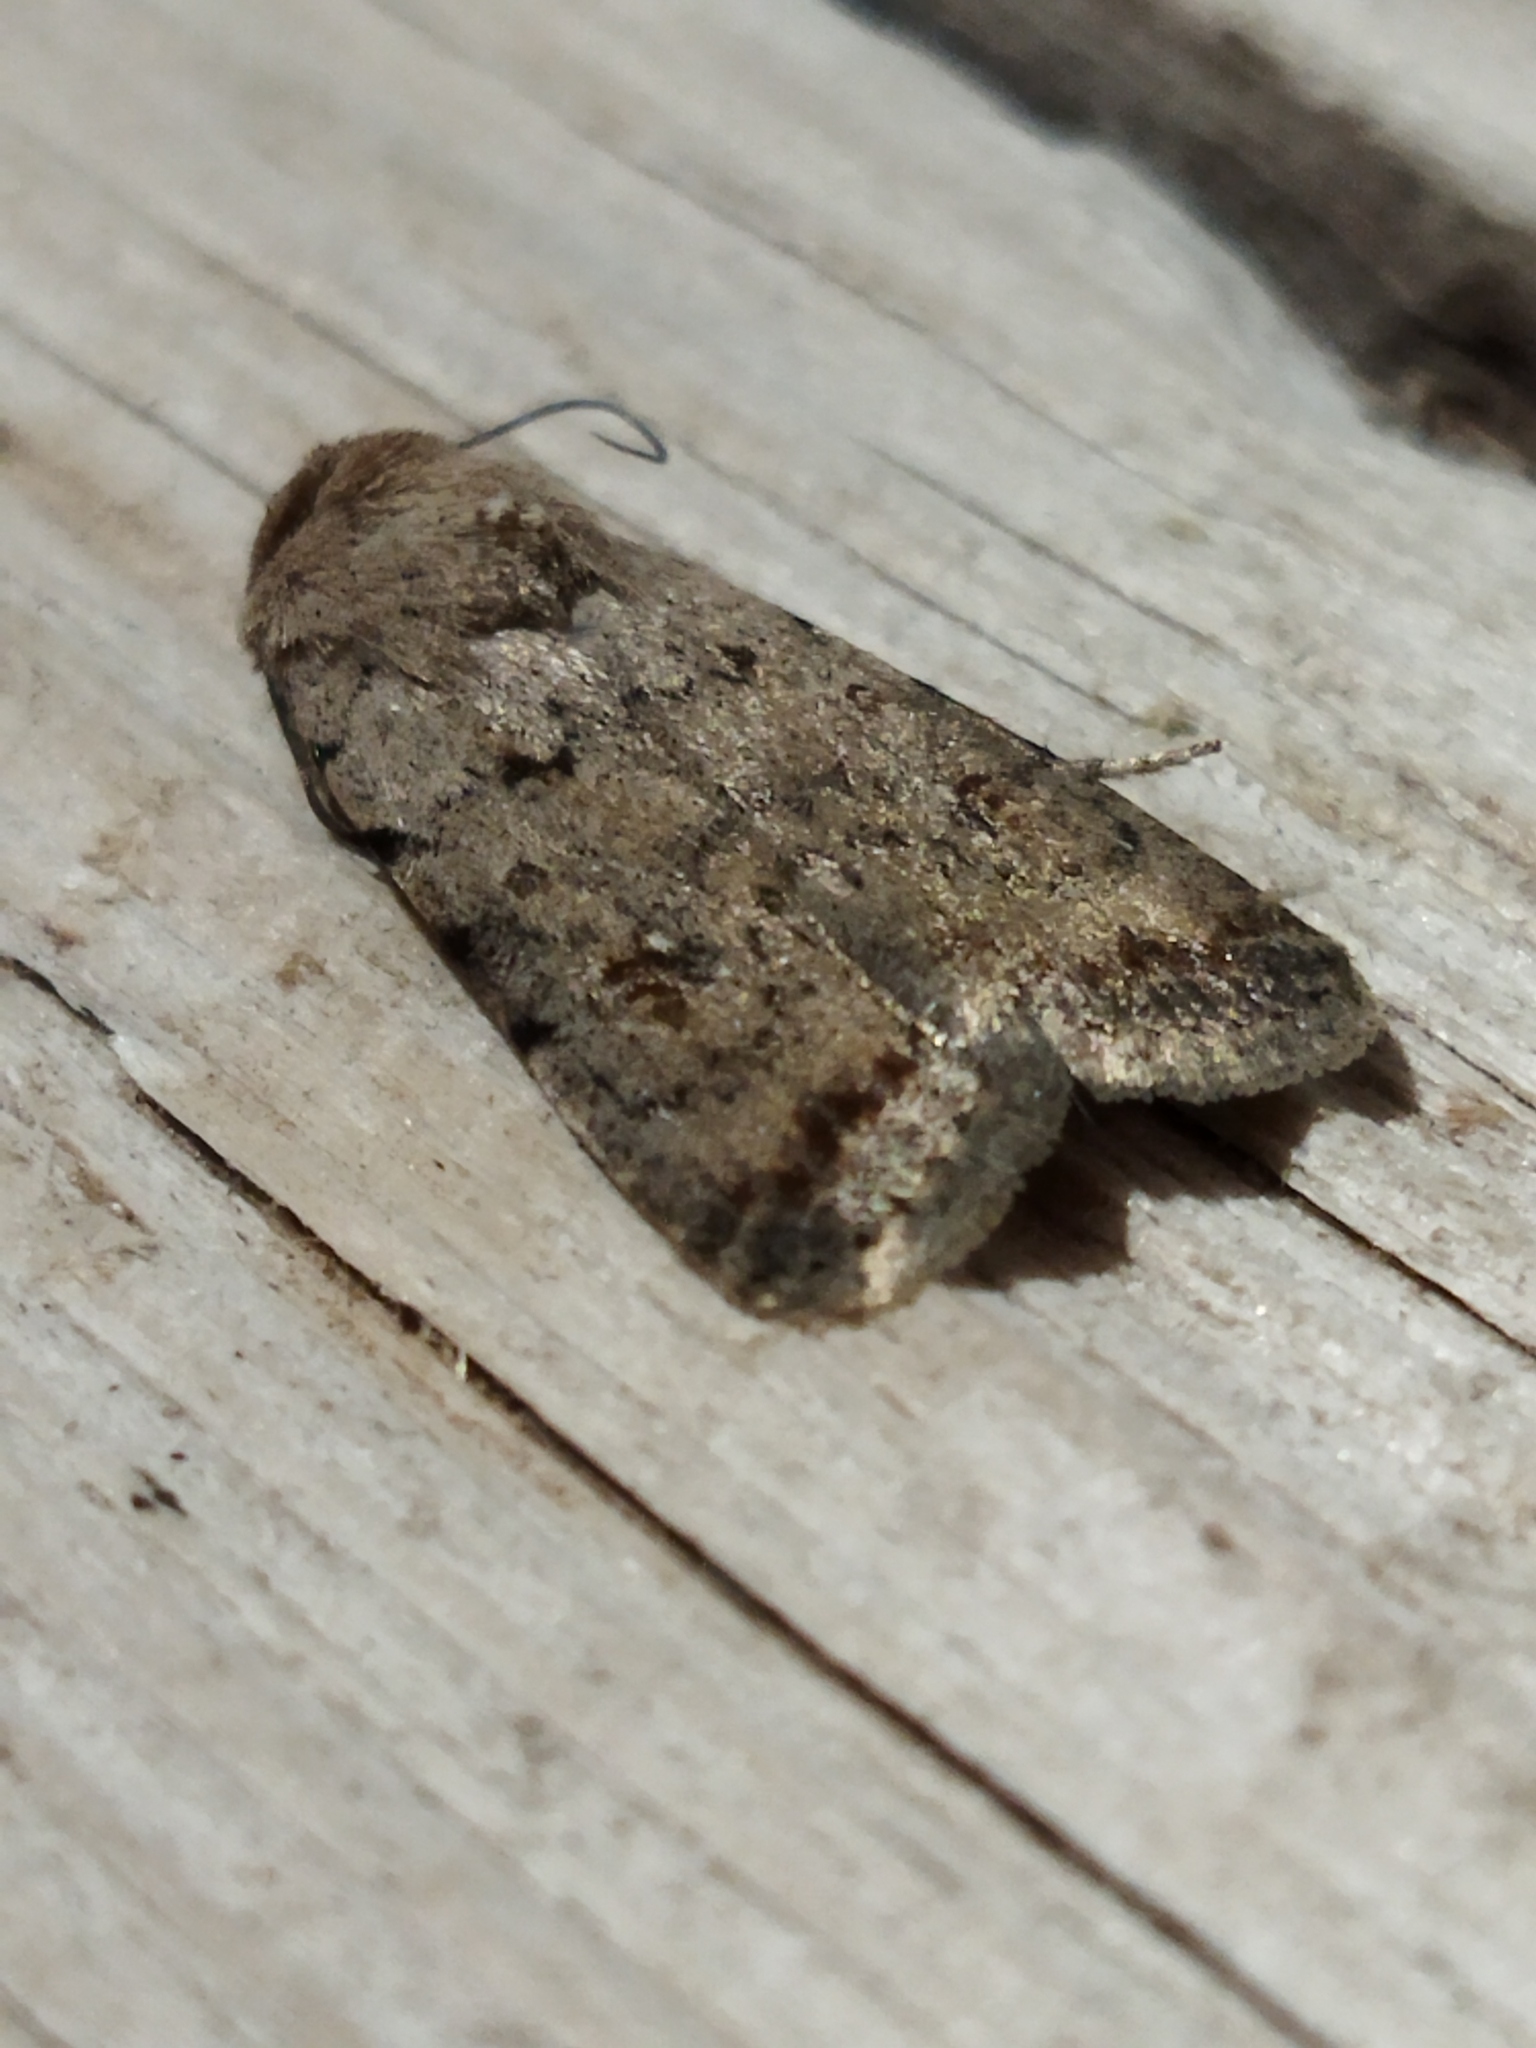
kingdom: Animalia
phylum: Arthropoda
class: Insecta
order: Lepidoptera
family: Noctuidae
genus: Caradrina
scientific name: Caradrina clavipalpis
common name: Pale mottled willow
